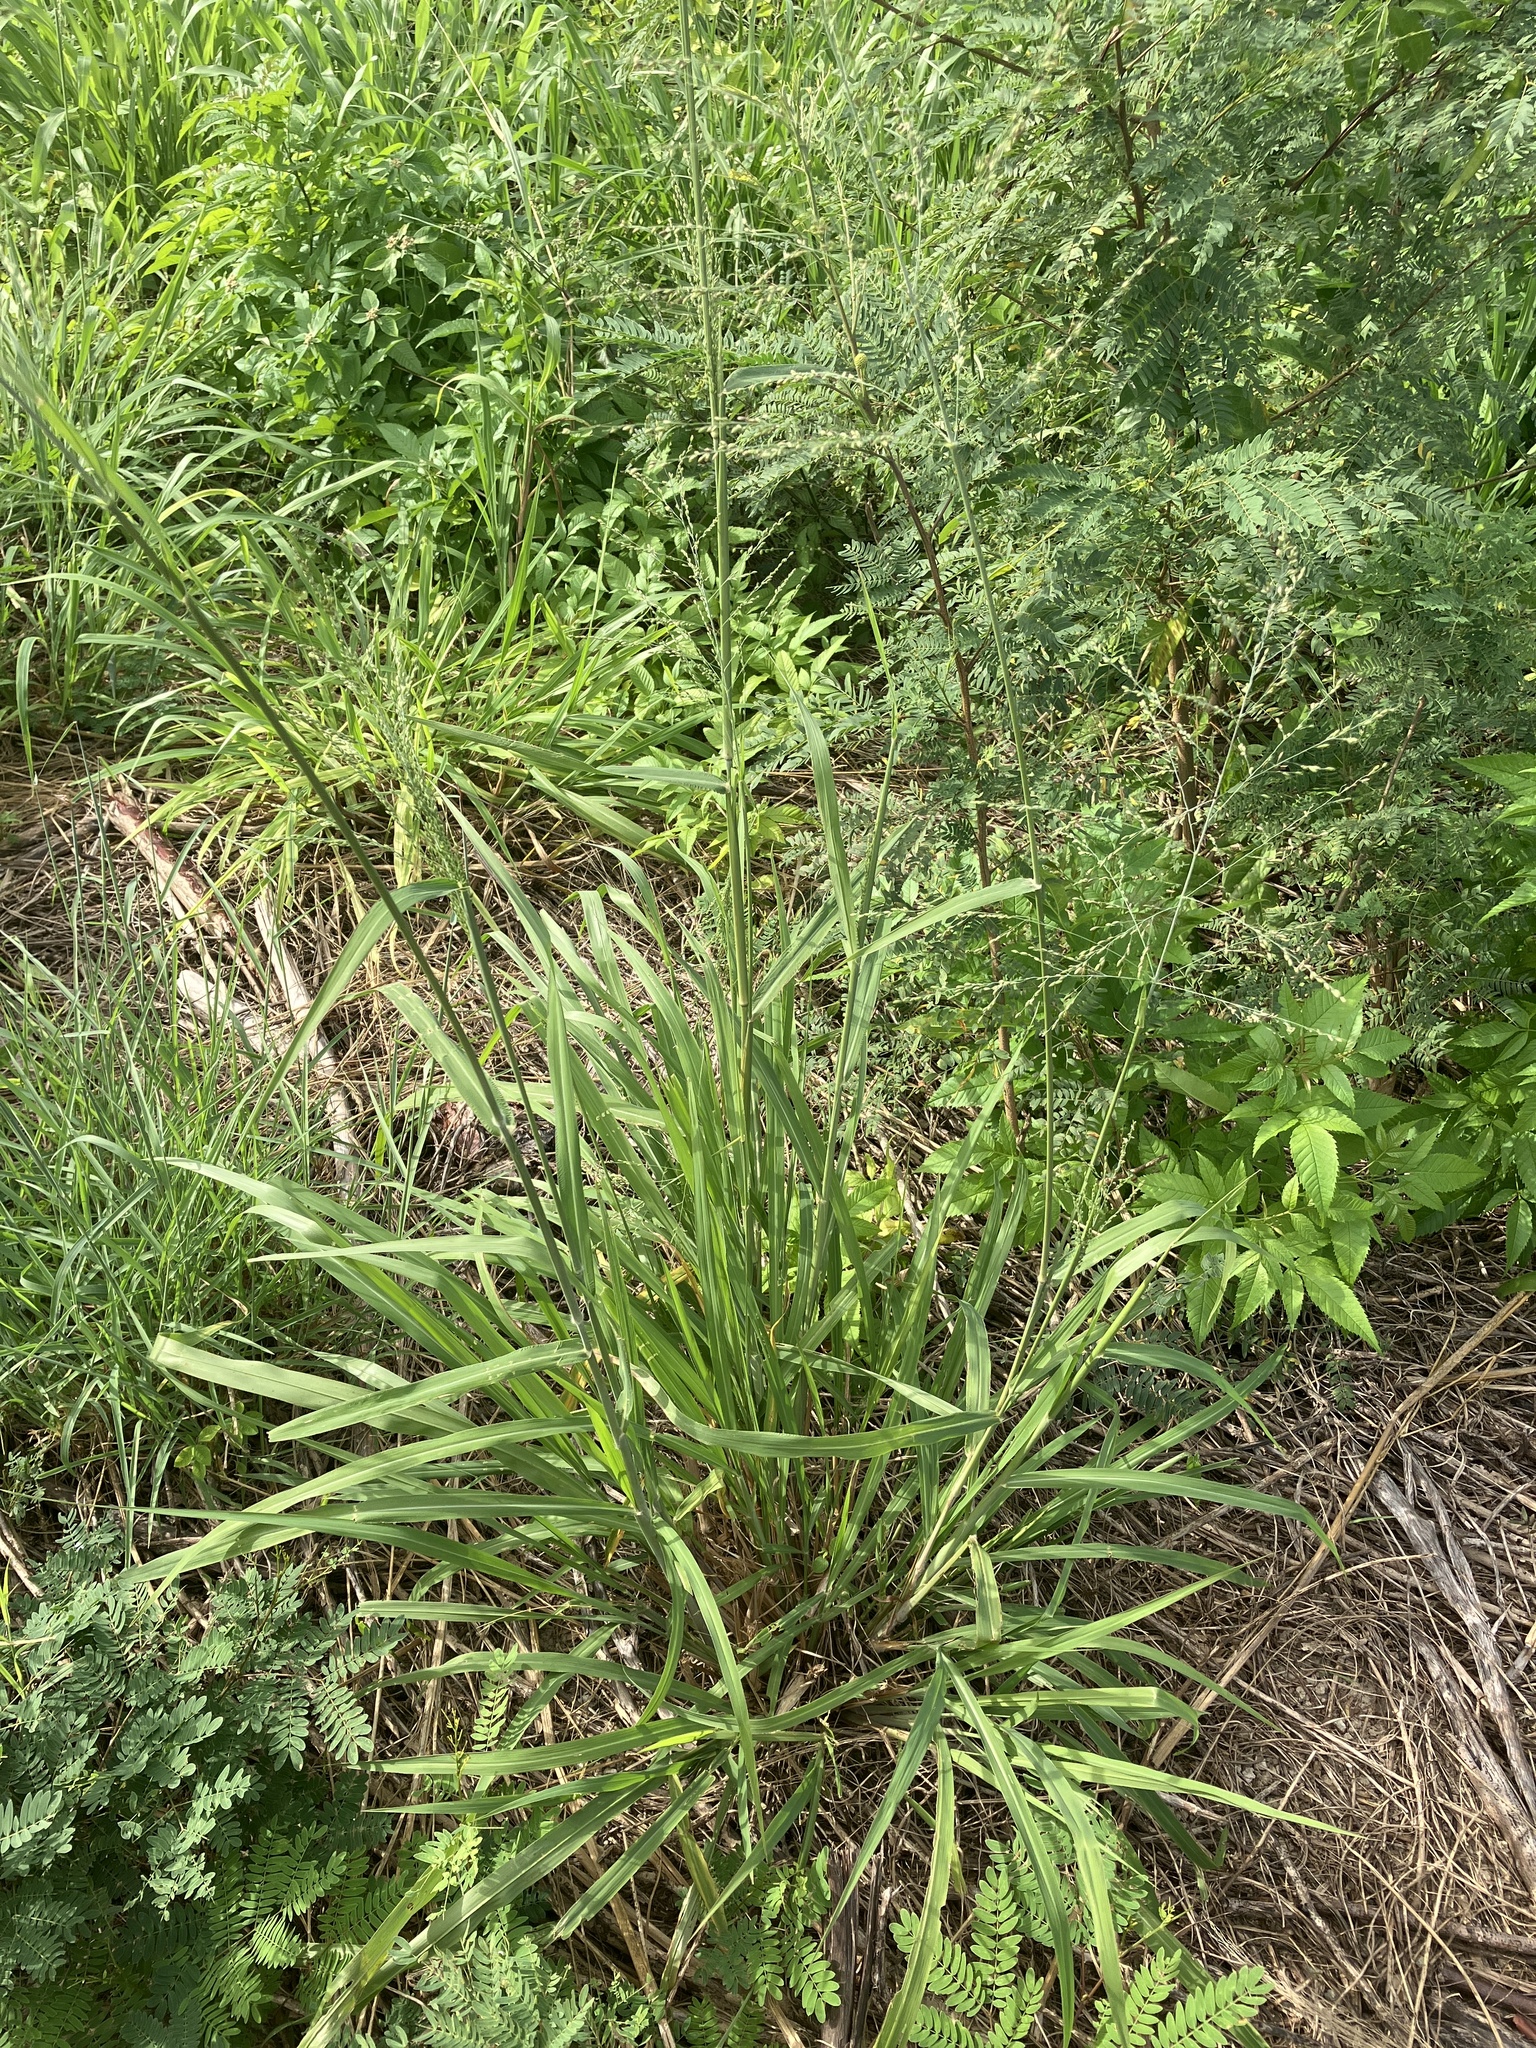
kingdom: Plantae
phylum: Tracheophyta
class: Liliopsida
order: Poales
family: Poaceae
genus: Megathyrsus
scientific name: Megathyrsus maximus
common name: Guineagrass
